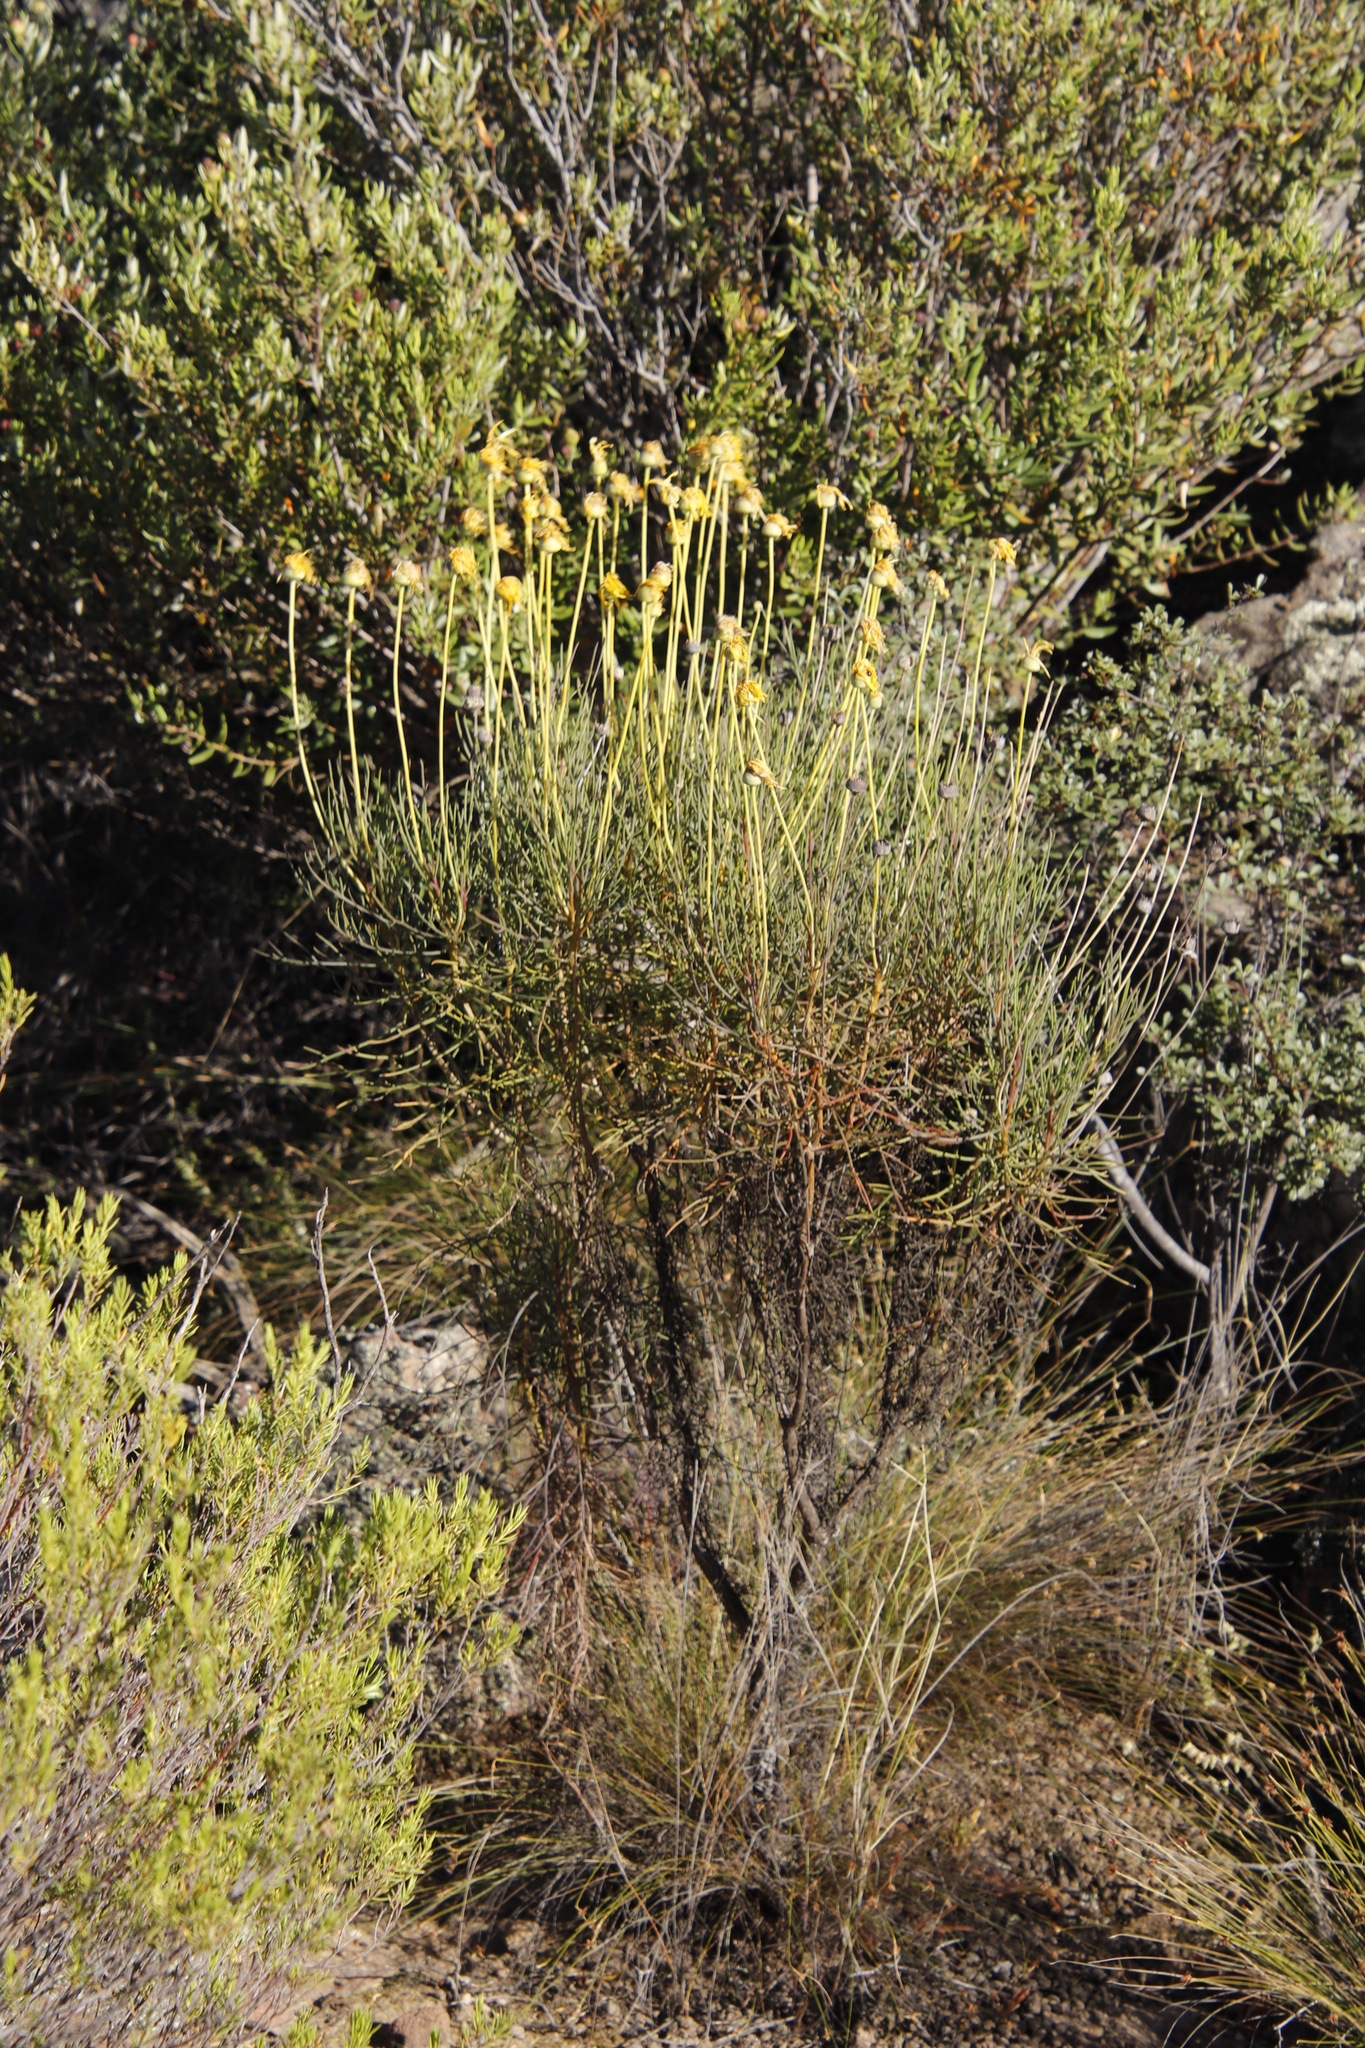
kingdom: Plantae
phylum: Tracheophyta
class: Magnoliopsida
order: Asterales
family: Asteraceae
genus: Euryops
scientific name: Euryops speciosissimus
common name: Clanwilliam daisy
